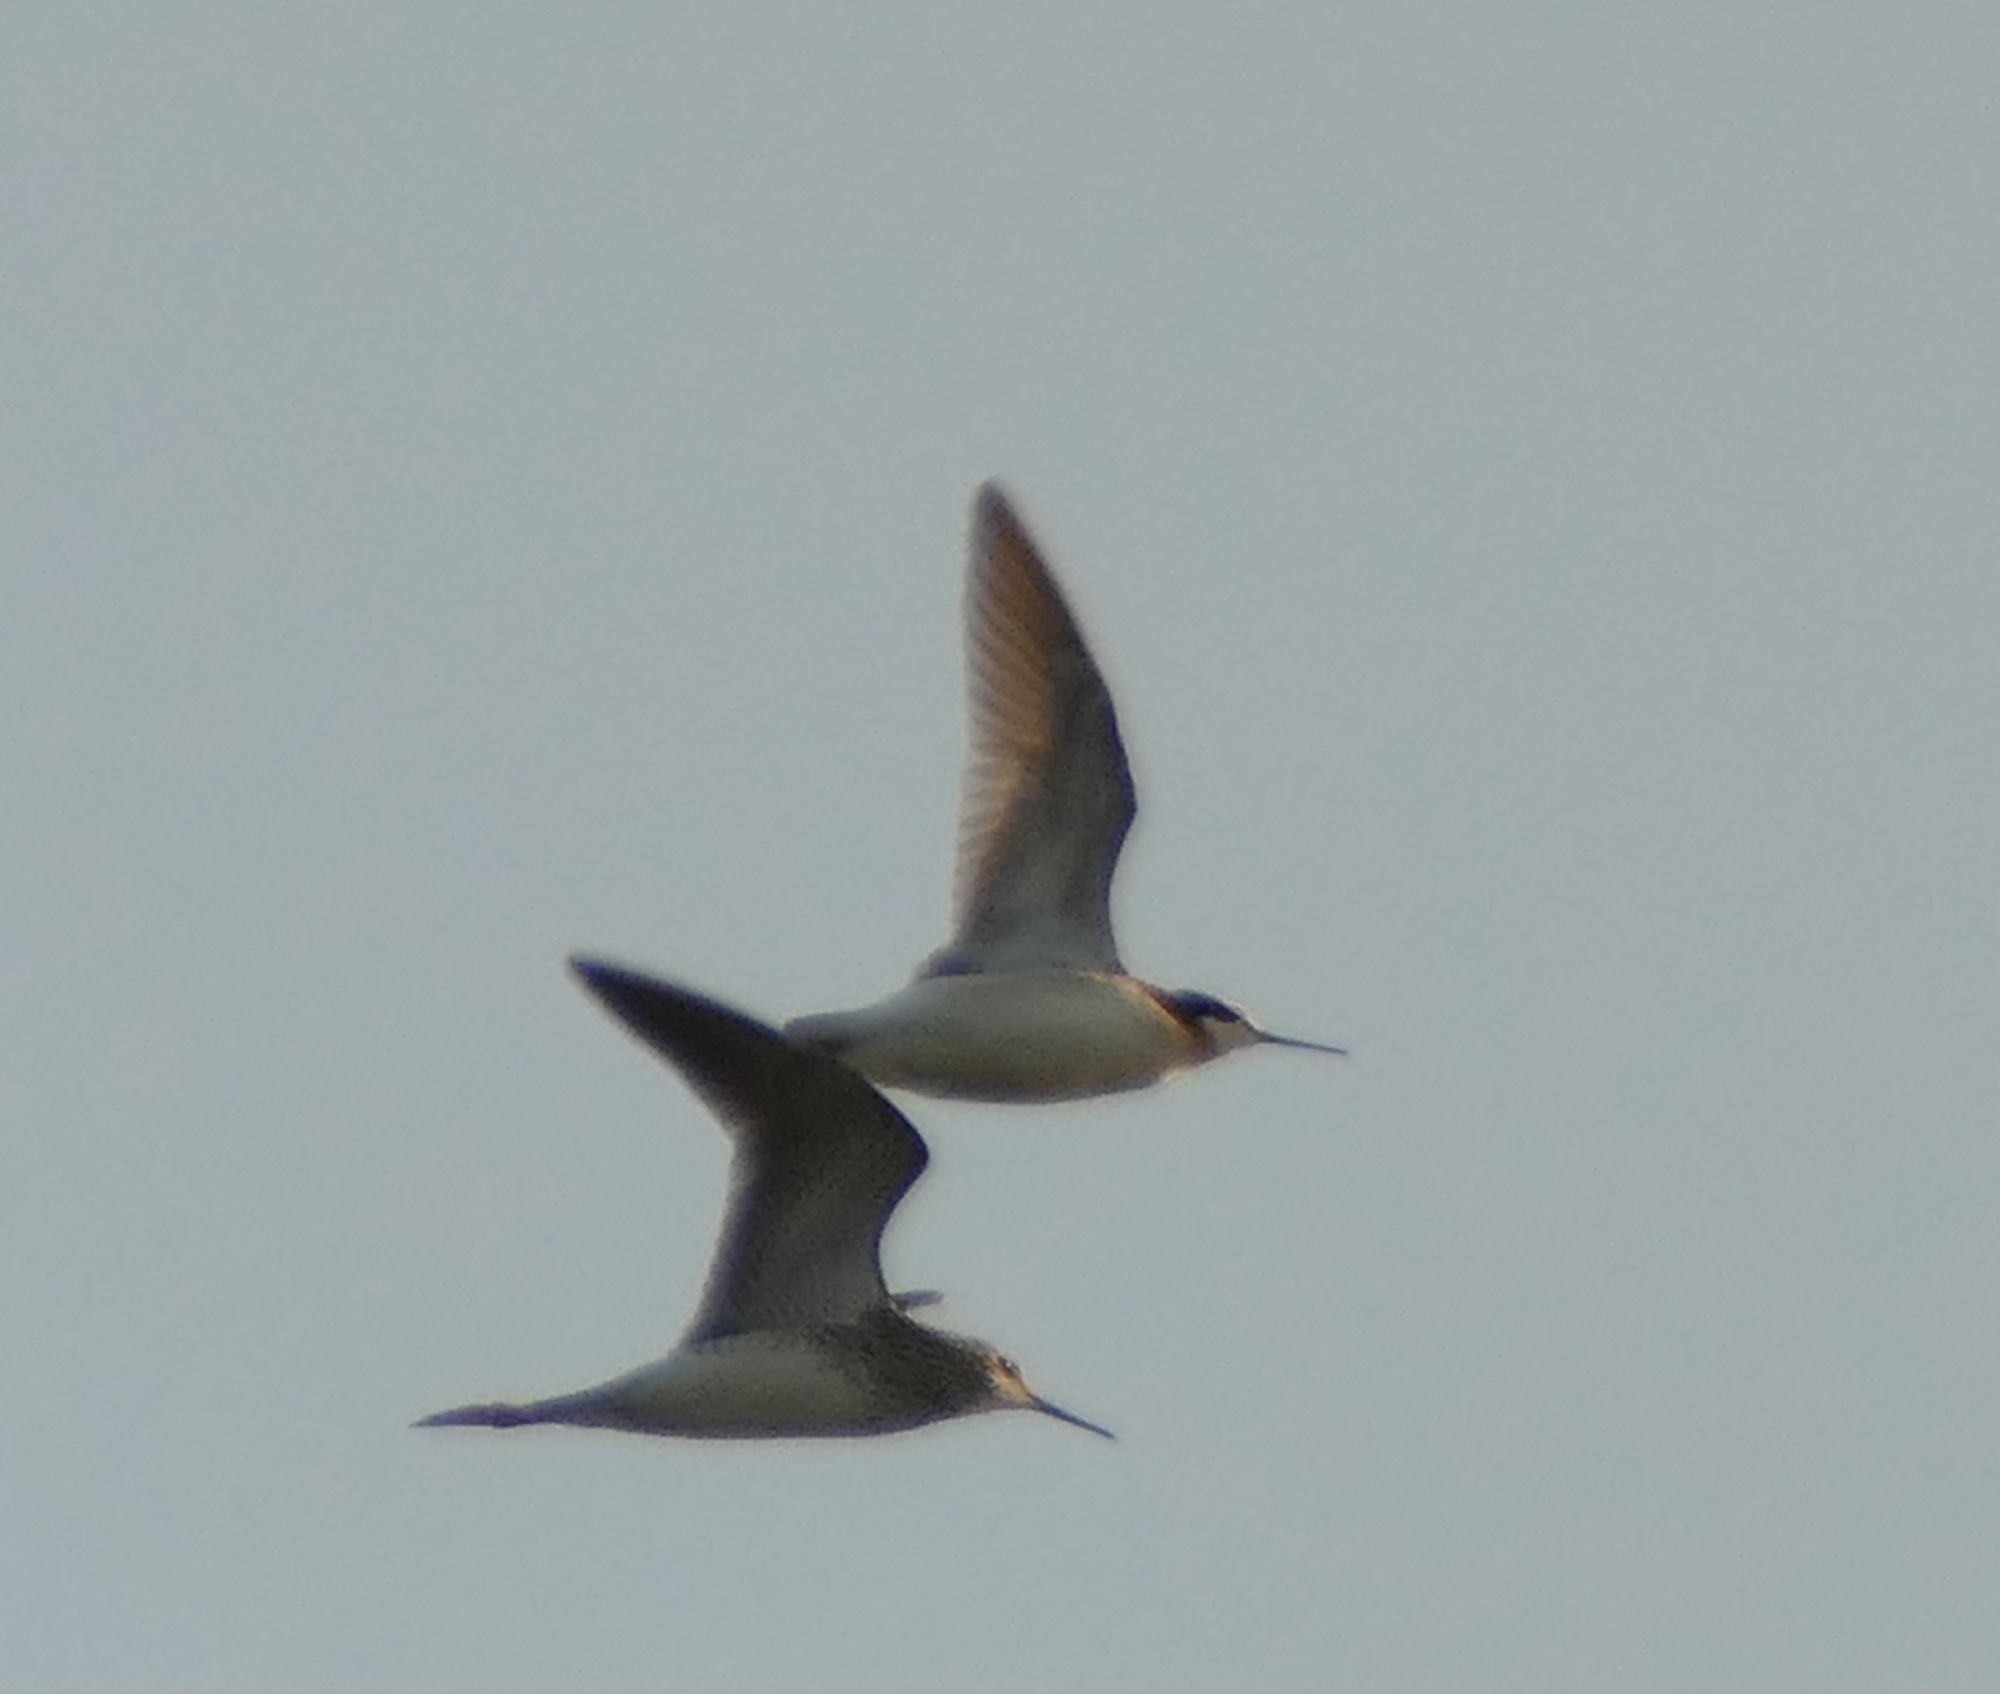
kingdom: Animalia
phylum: Chordata
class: Aves
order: Charadriiformes
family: Scolopacidae
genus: Phalaropus
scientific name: Phalaropus tricolor
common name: Wilson's phalarope
